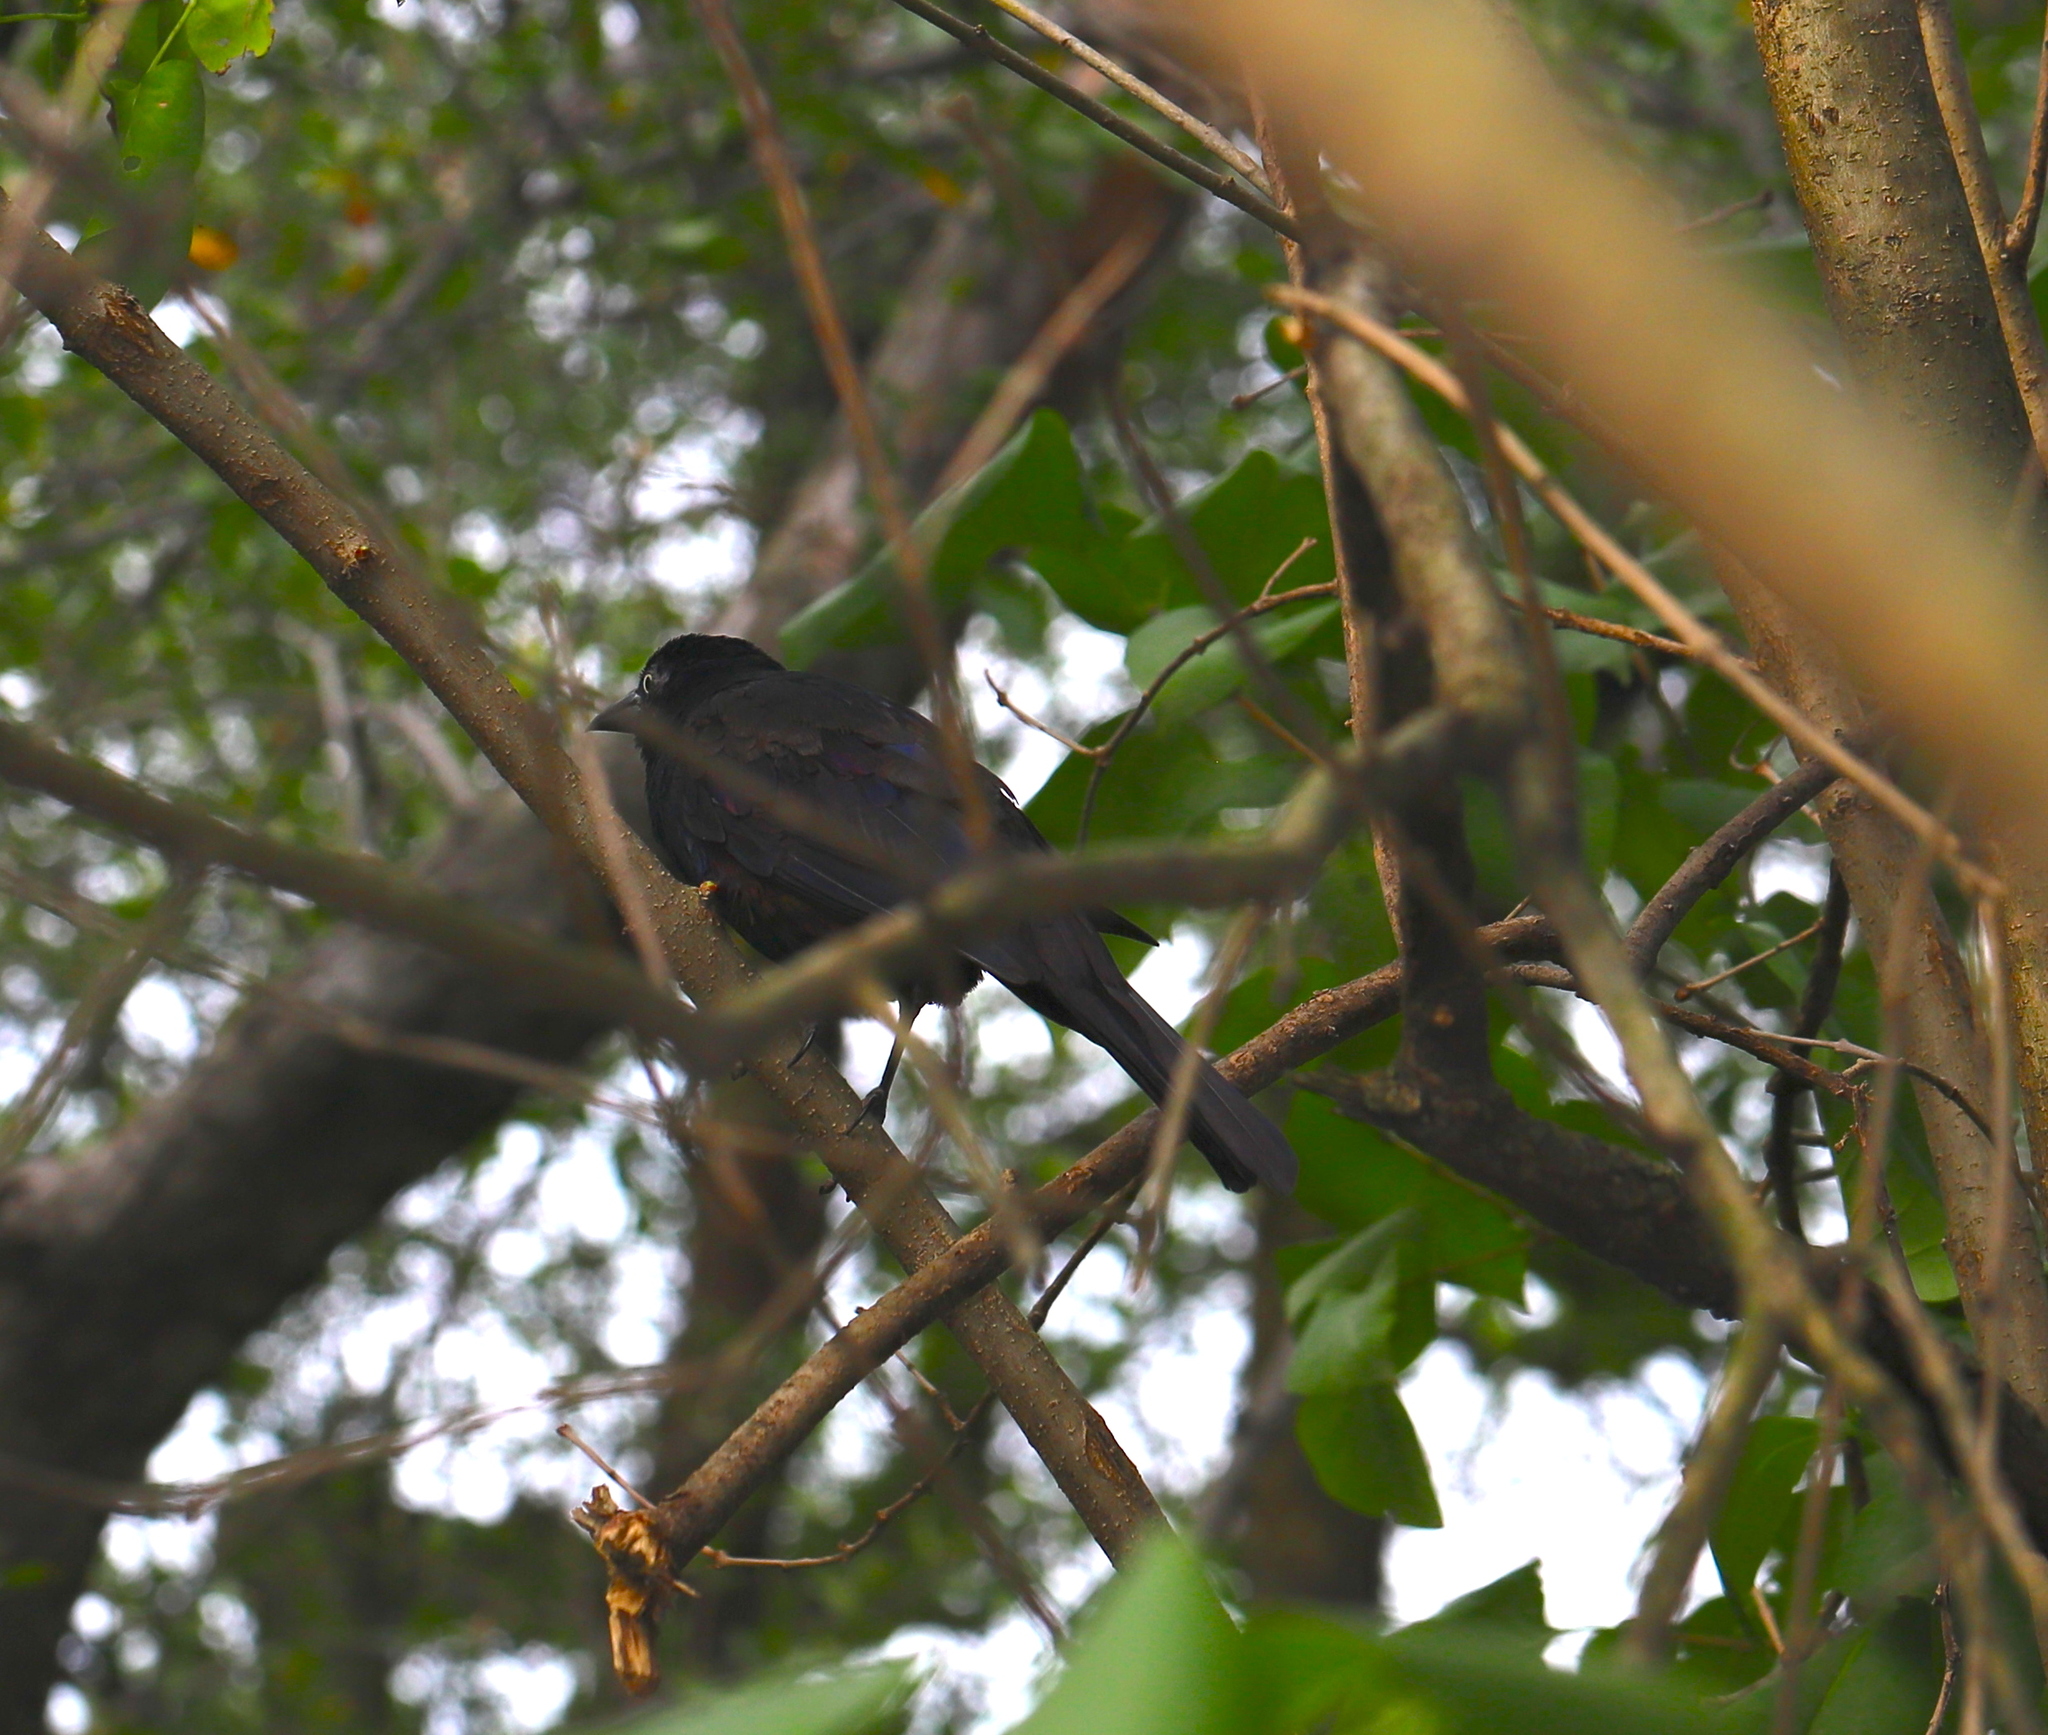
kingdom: Animalia
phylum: Chordata
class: Aves
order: Passeriformes
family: Icteridae
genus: Quiscalus
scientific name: Quiscalus quiscula
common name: Common grackle
